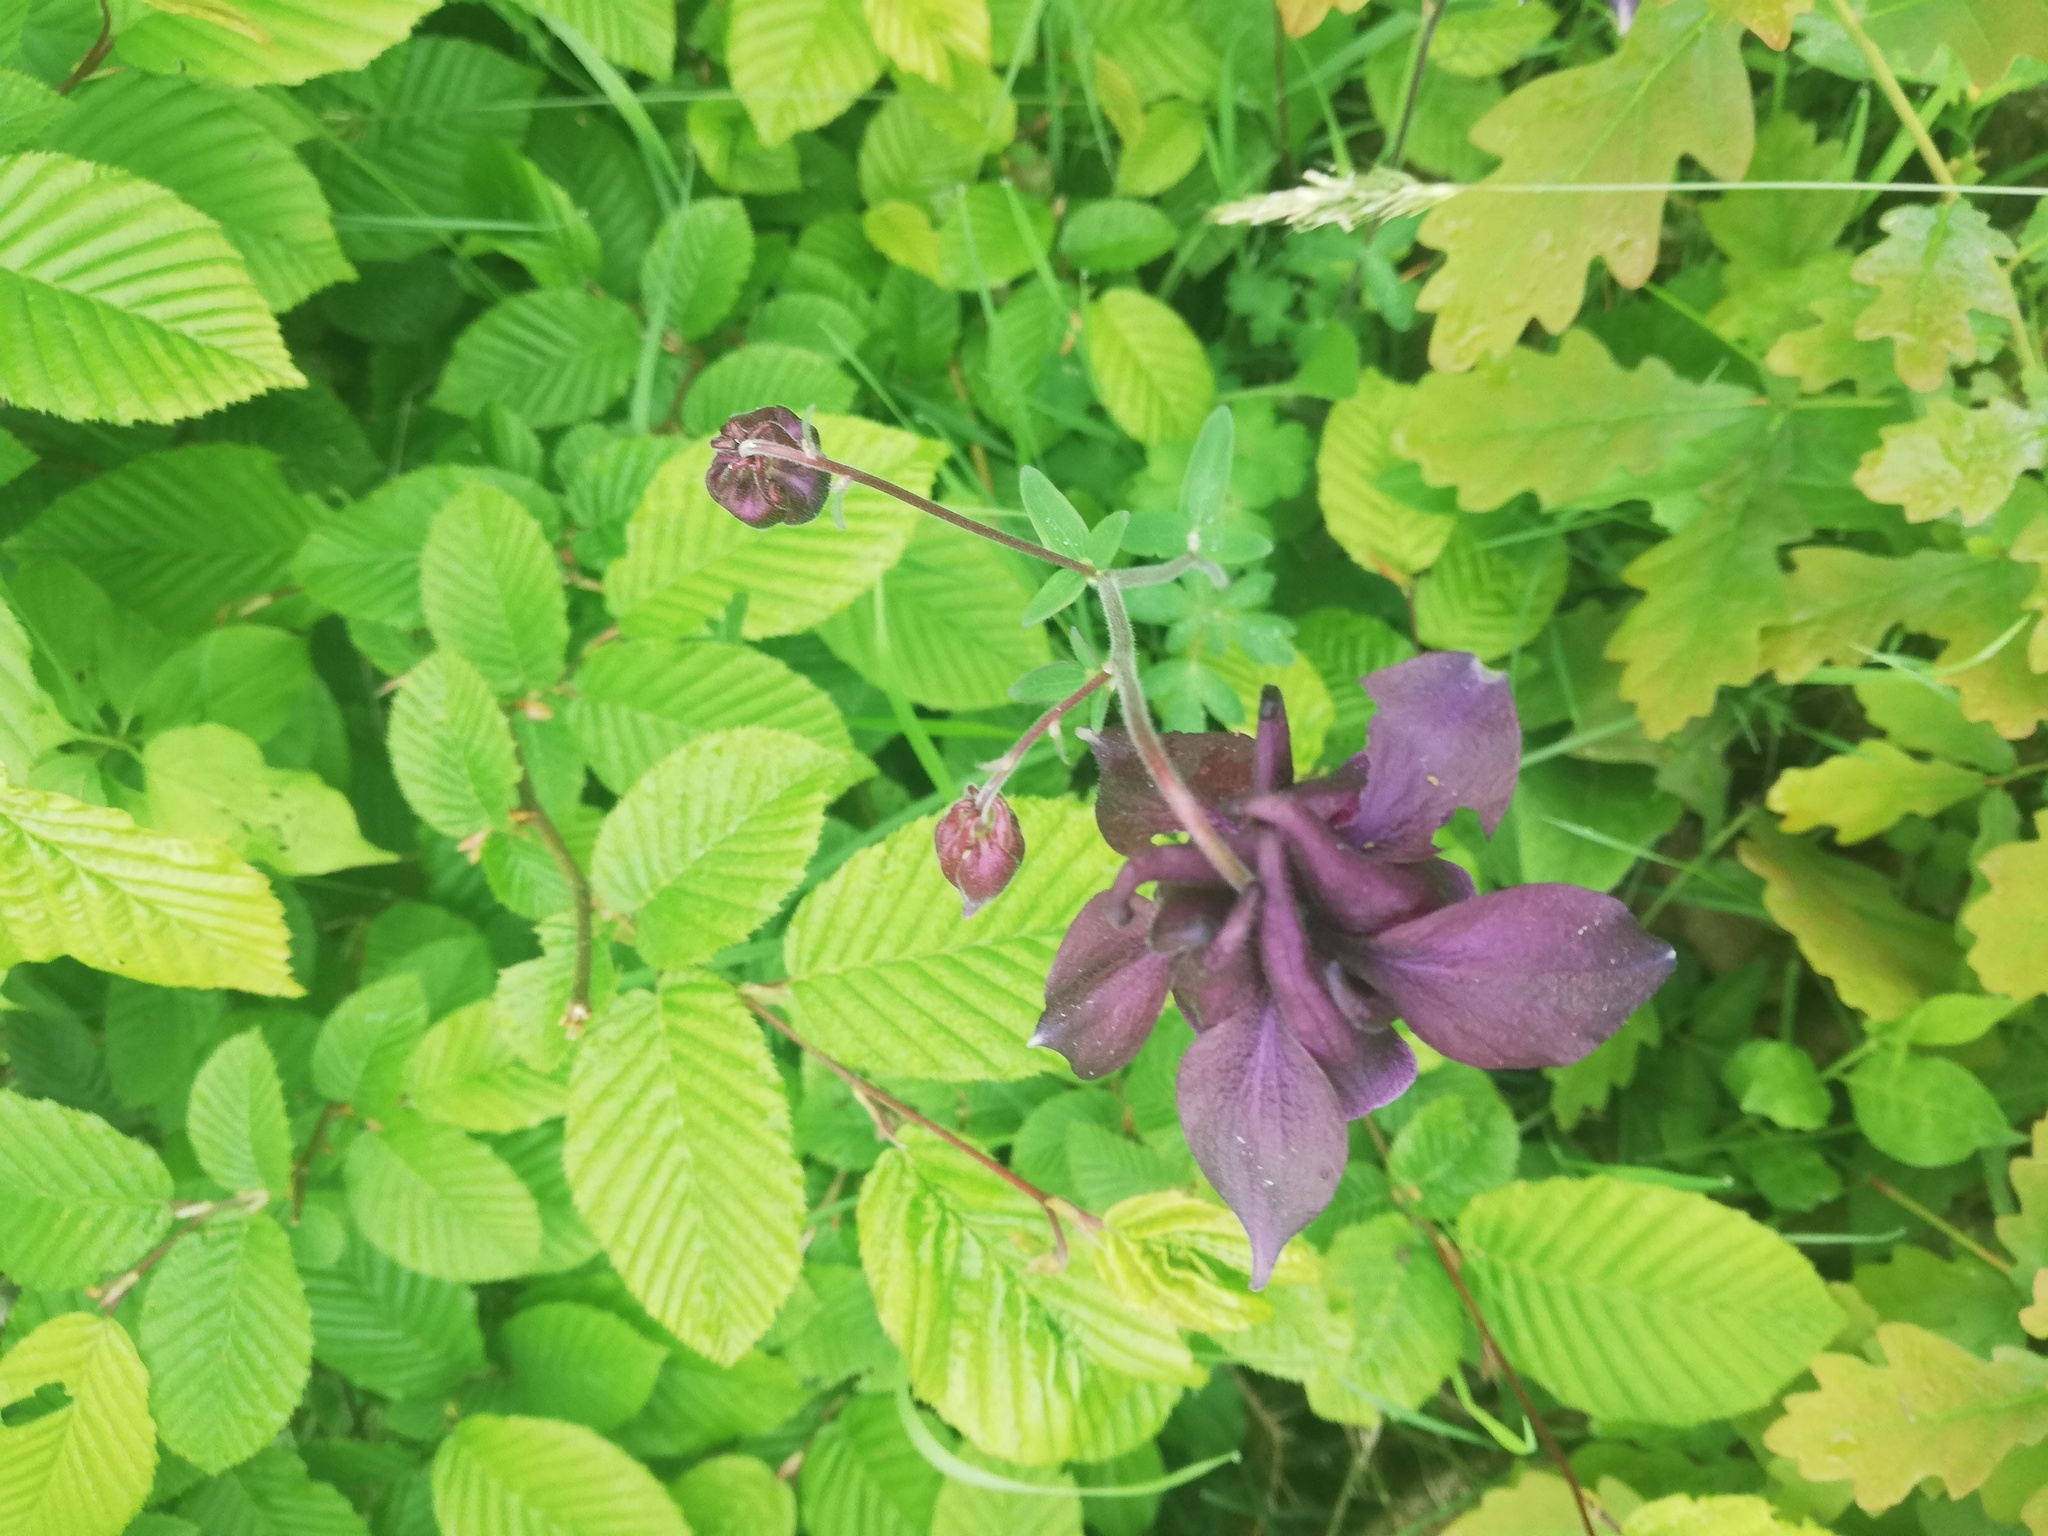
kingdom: Plantae
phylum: Tracheophyta
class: Magnoliopsida
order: Ranunculales
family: Ranunculaceae
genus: Aquilegia
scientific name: Aquilegia atrata
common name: Dark columbine
